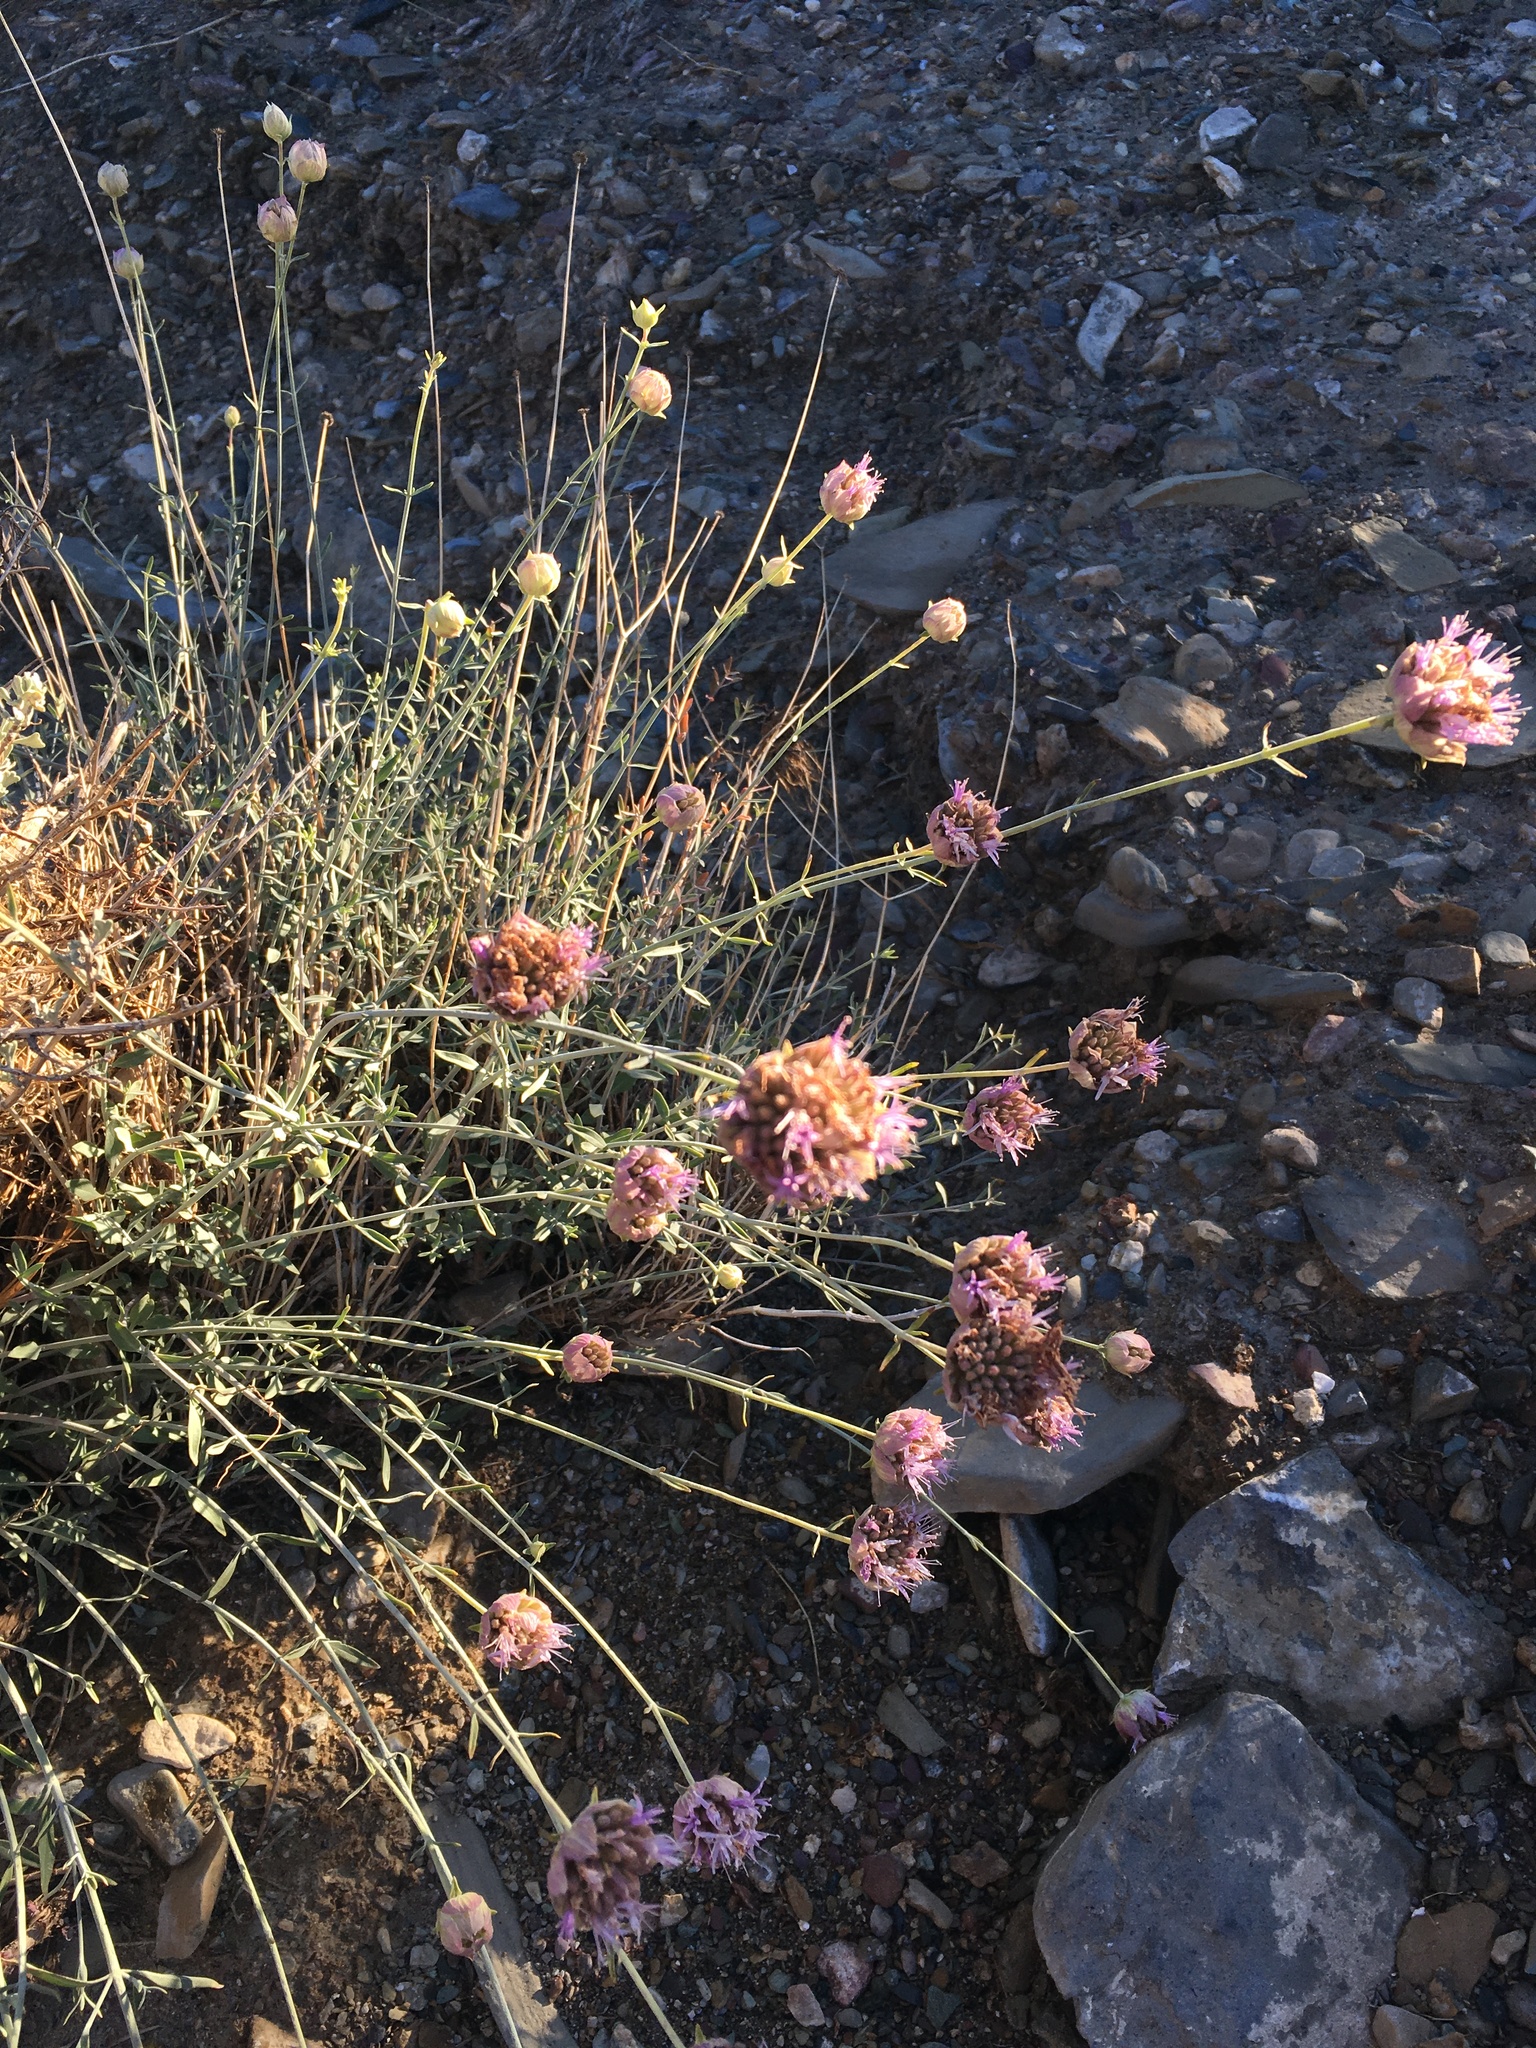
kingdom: Plantae
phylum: Tracheophyta
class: Magnoliopsida
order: Lamiales
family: Lamiaceae
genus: Monardella
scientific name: Monardella linoides
